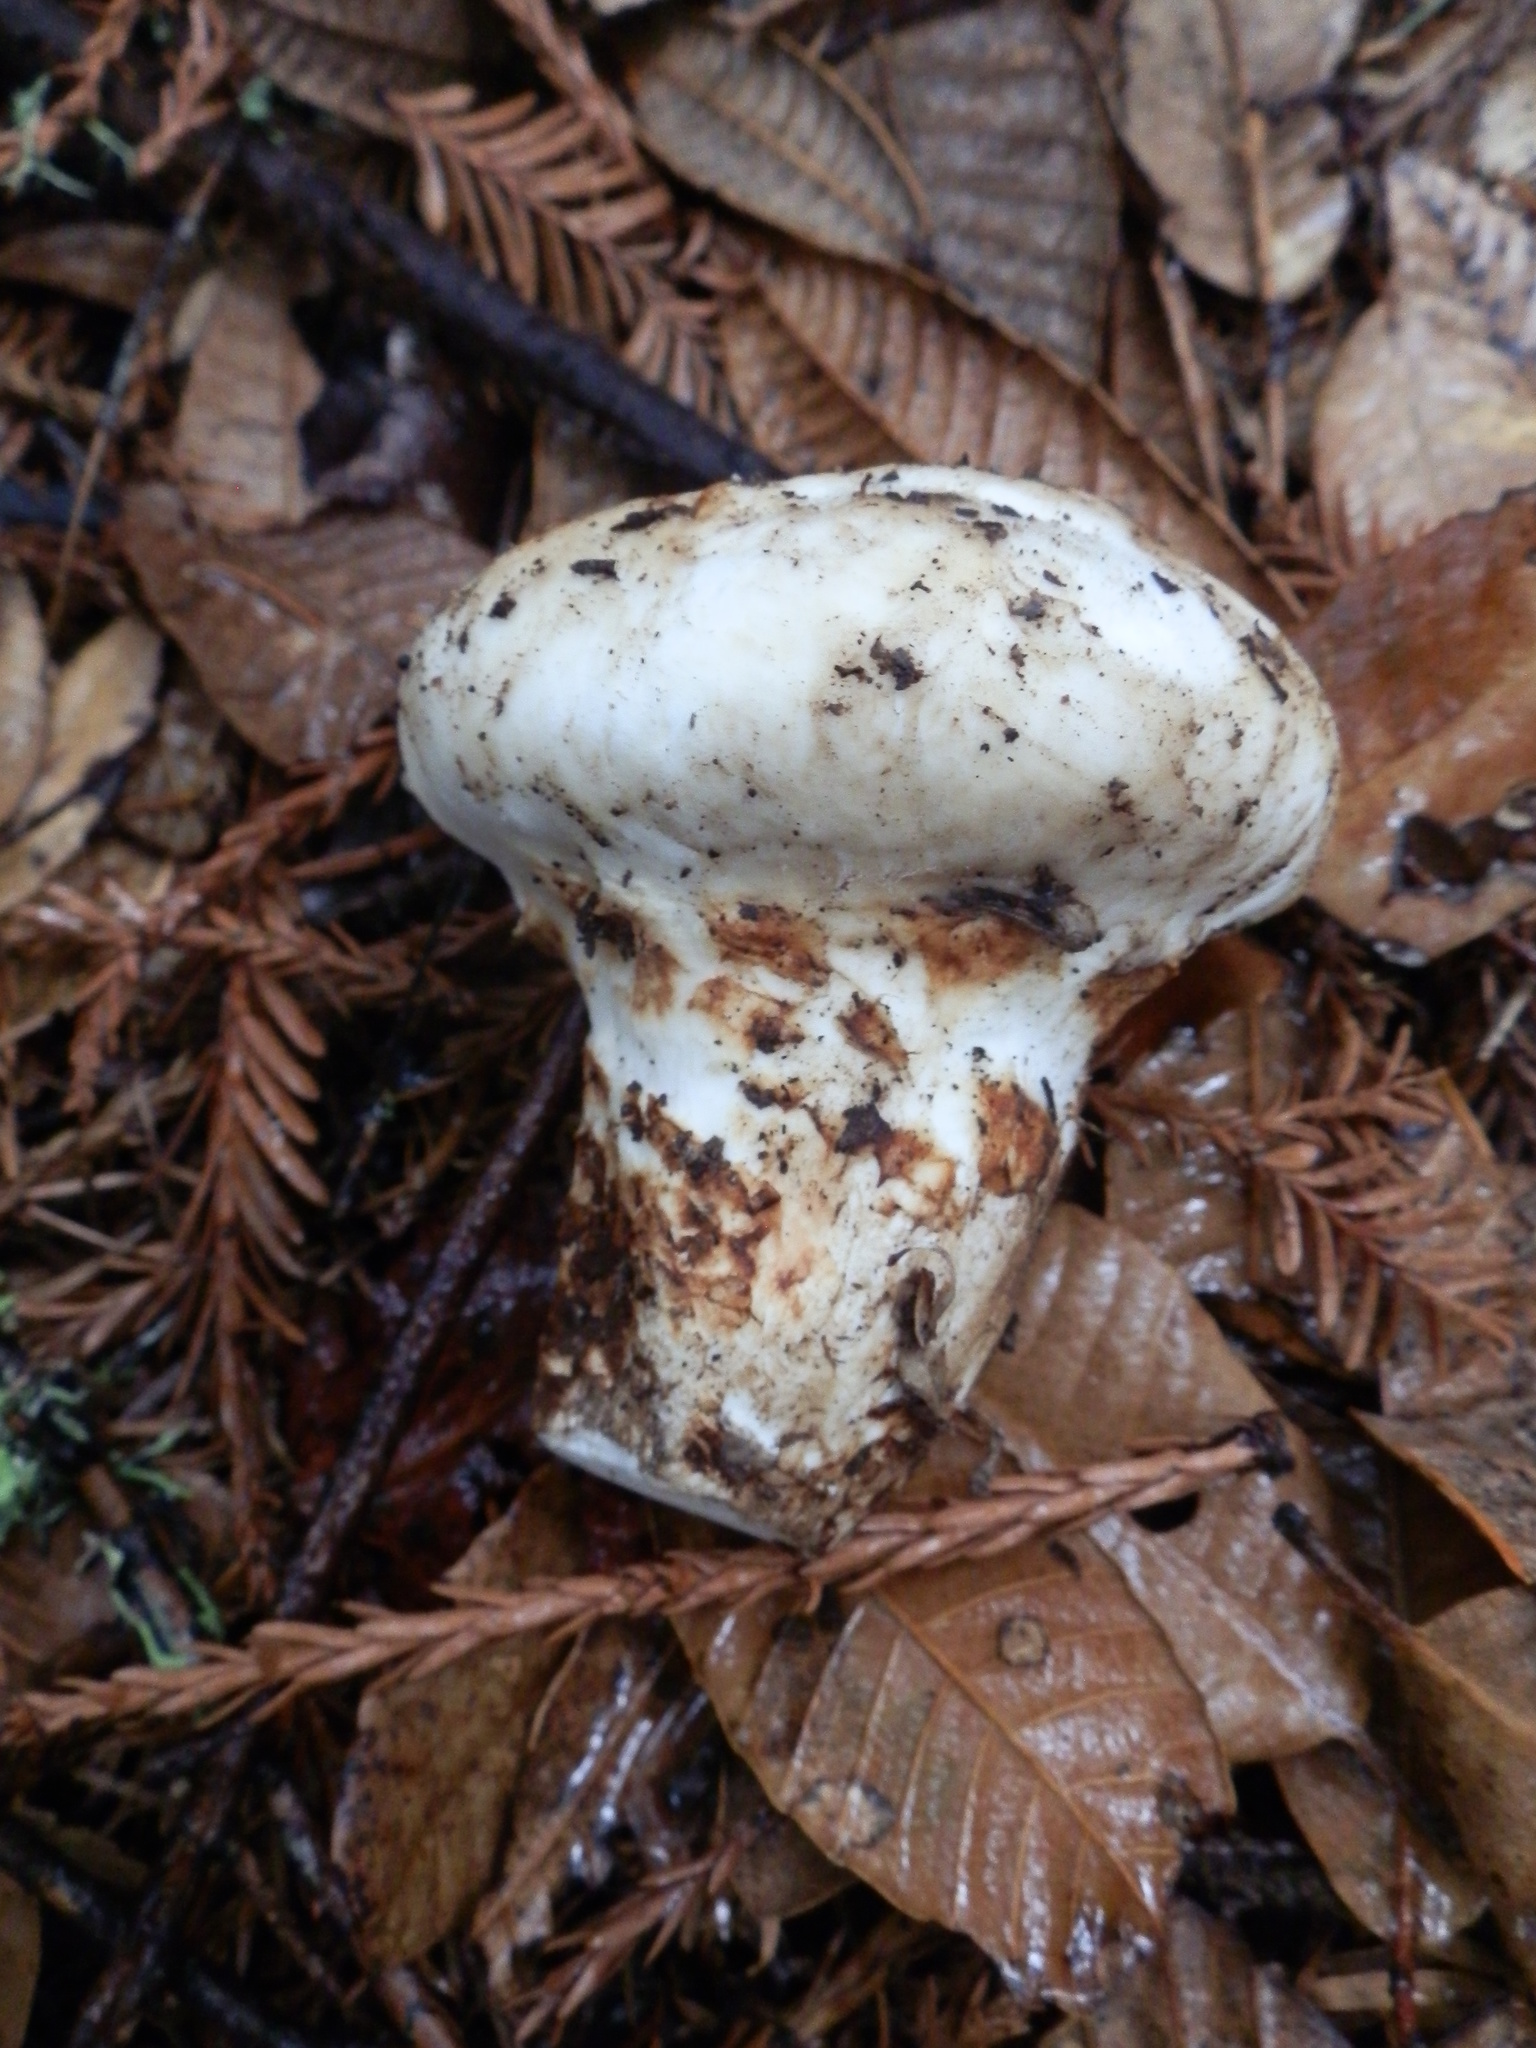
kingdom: Fungi
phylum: Basidiomycota
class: Agaricomycetes
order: Agaricales
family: Tricholomataceae
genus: Tricholoma
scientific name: Tricholoma murrillianum
